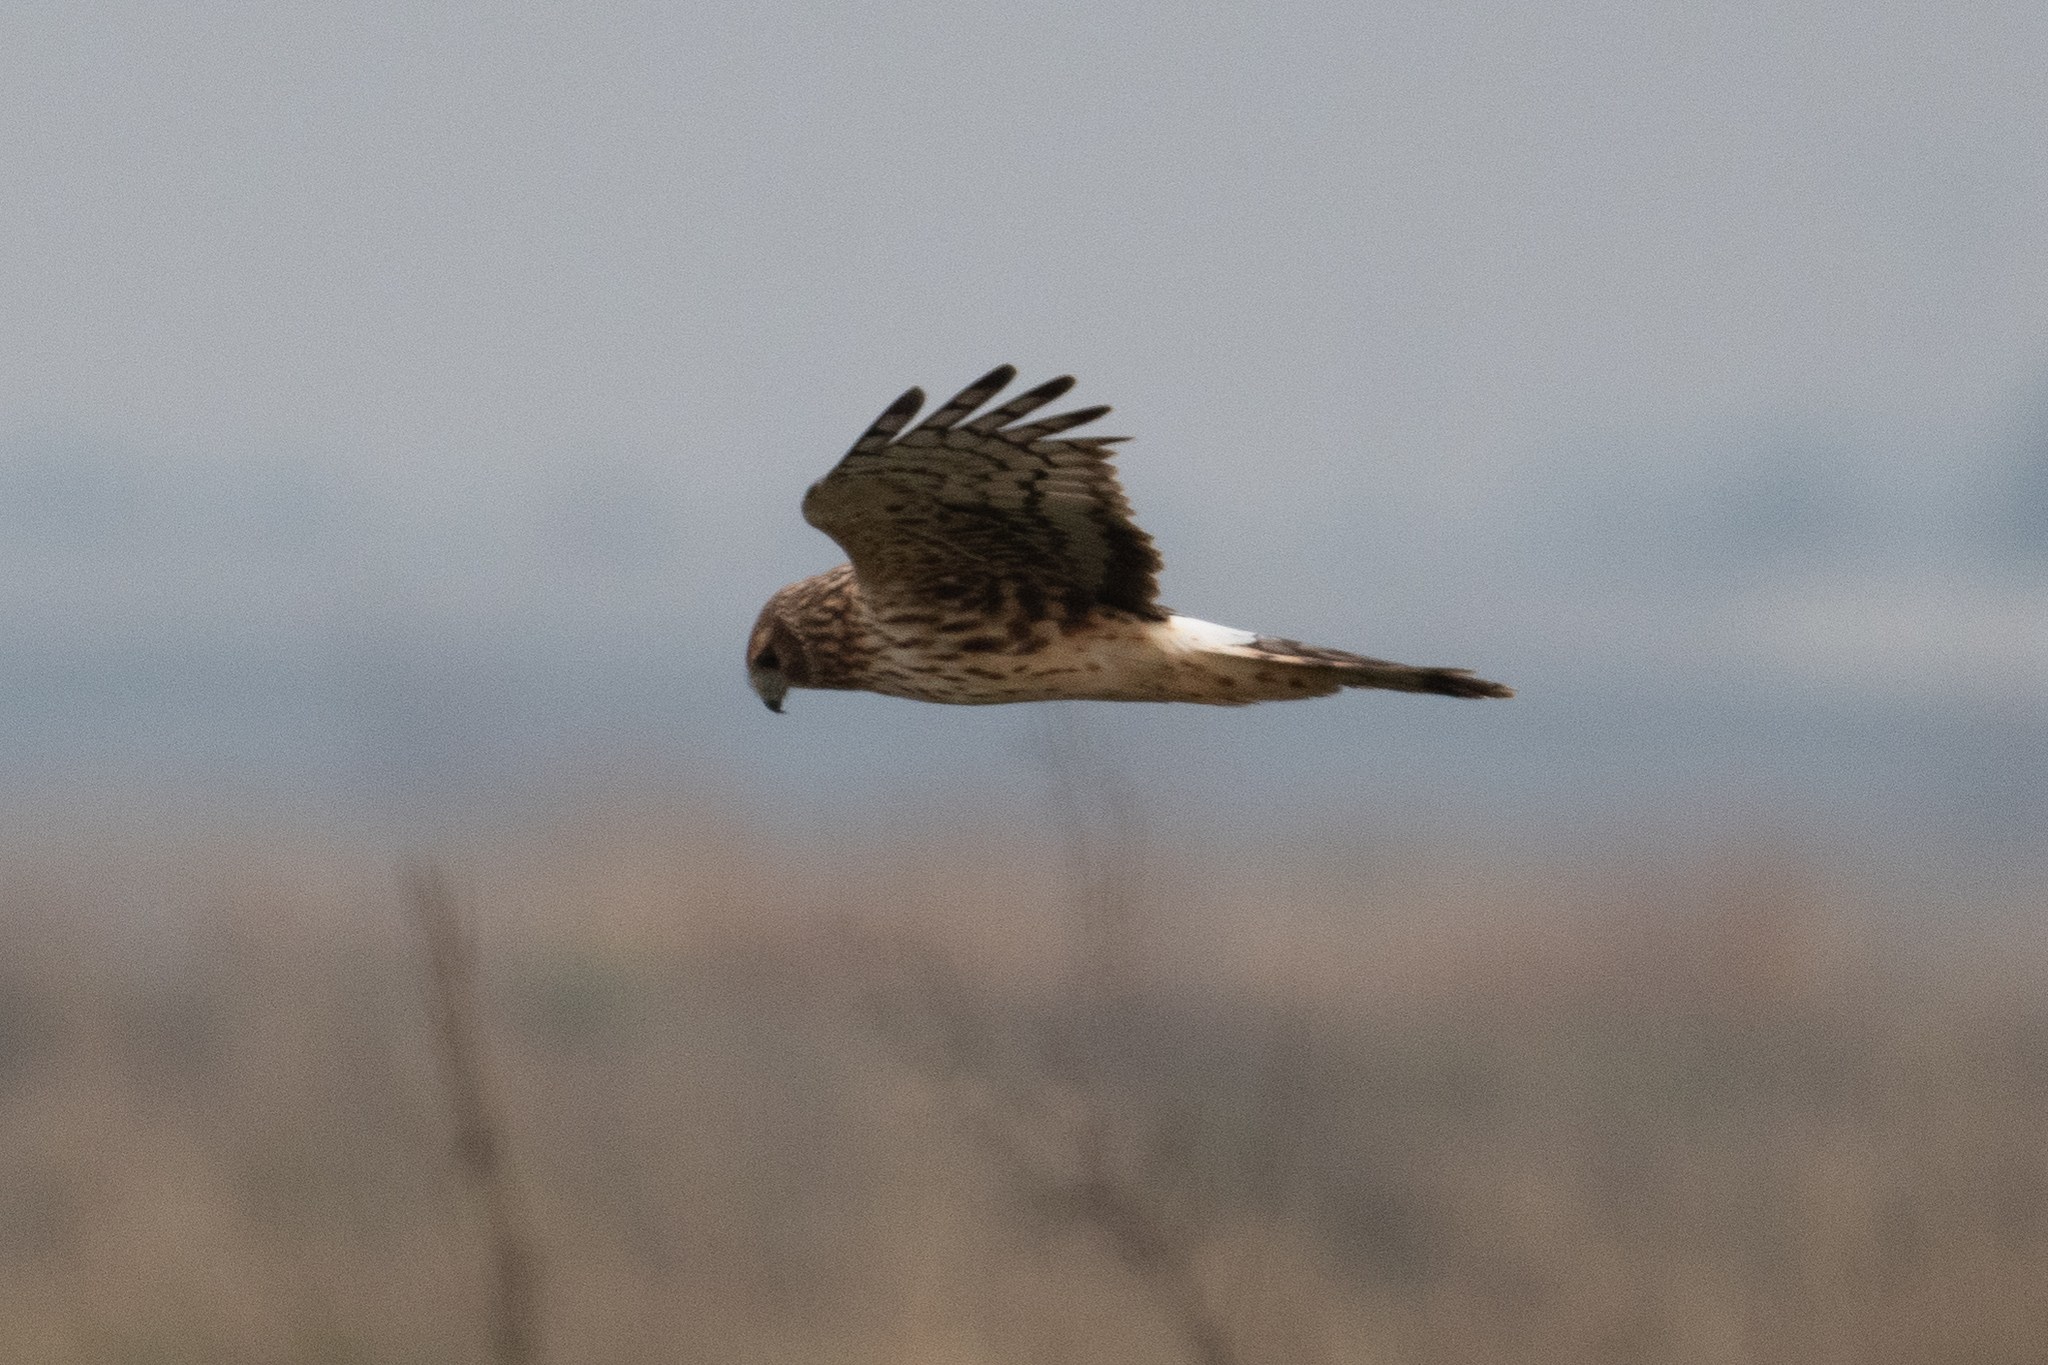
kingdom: Animalia
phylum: Chordata
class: Aves
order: Accipitriformes
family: Accipitridae
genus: Circus
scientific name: Circus cyaneus
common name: Hen harrier
